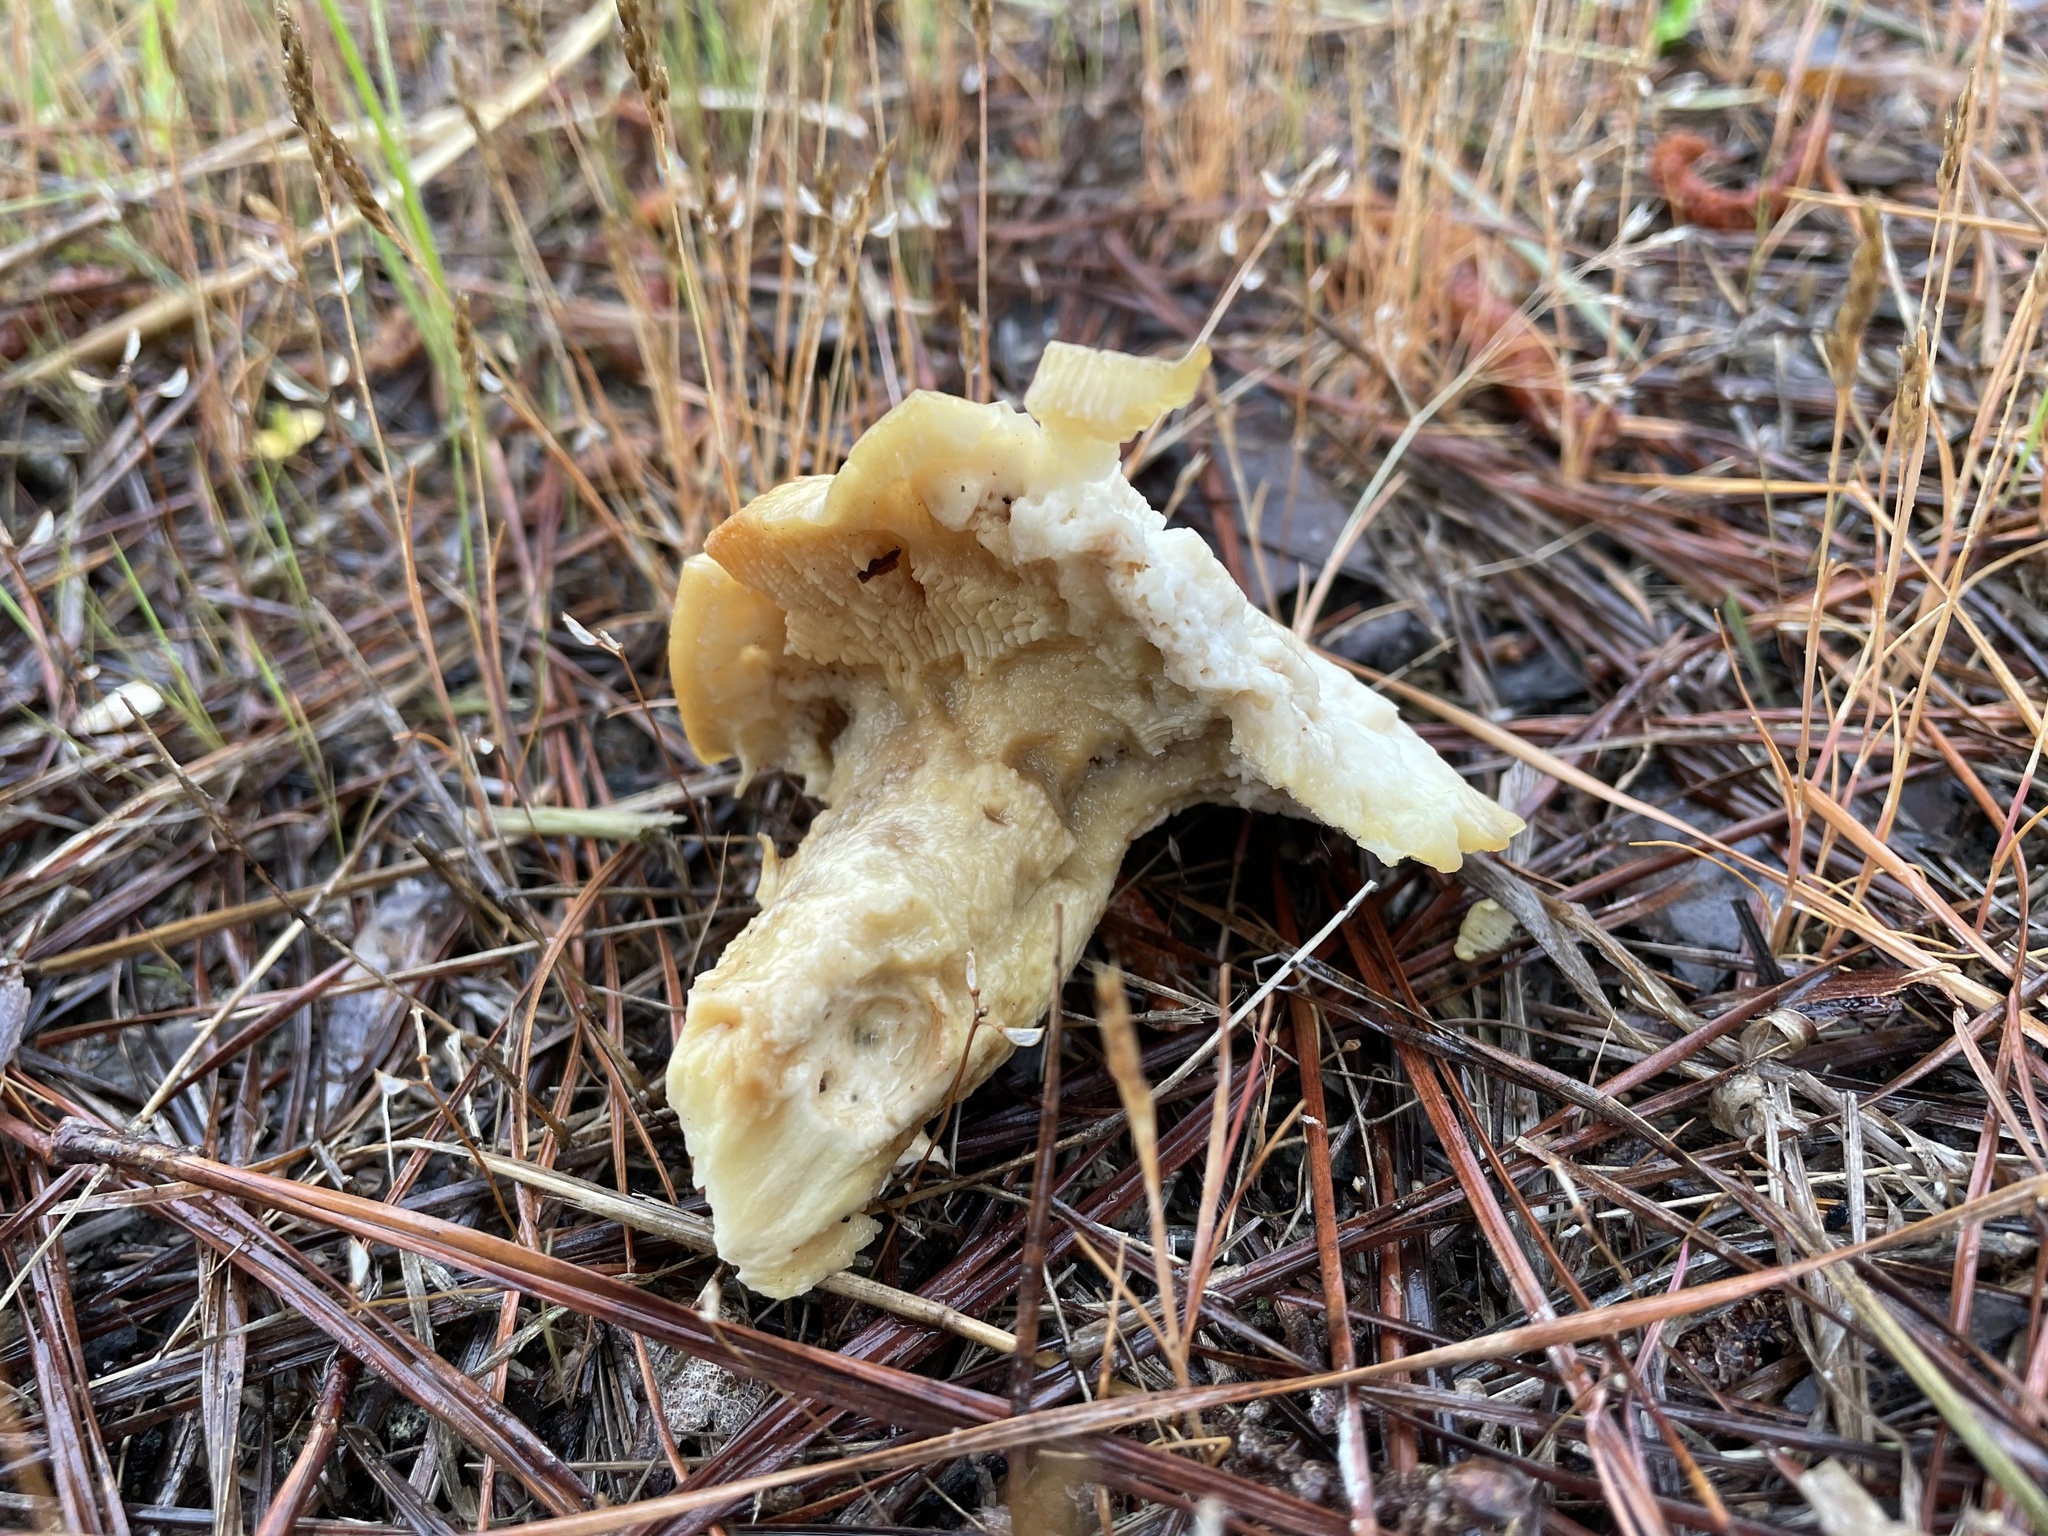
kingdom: Fungi
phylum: Basidiomycota
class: Agaricomycetes
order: Gloeophyllales
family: Gloeophyllaceae
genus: Neolentinus
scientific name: Neolentinus lepideus
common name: Scaly sawgill
